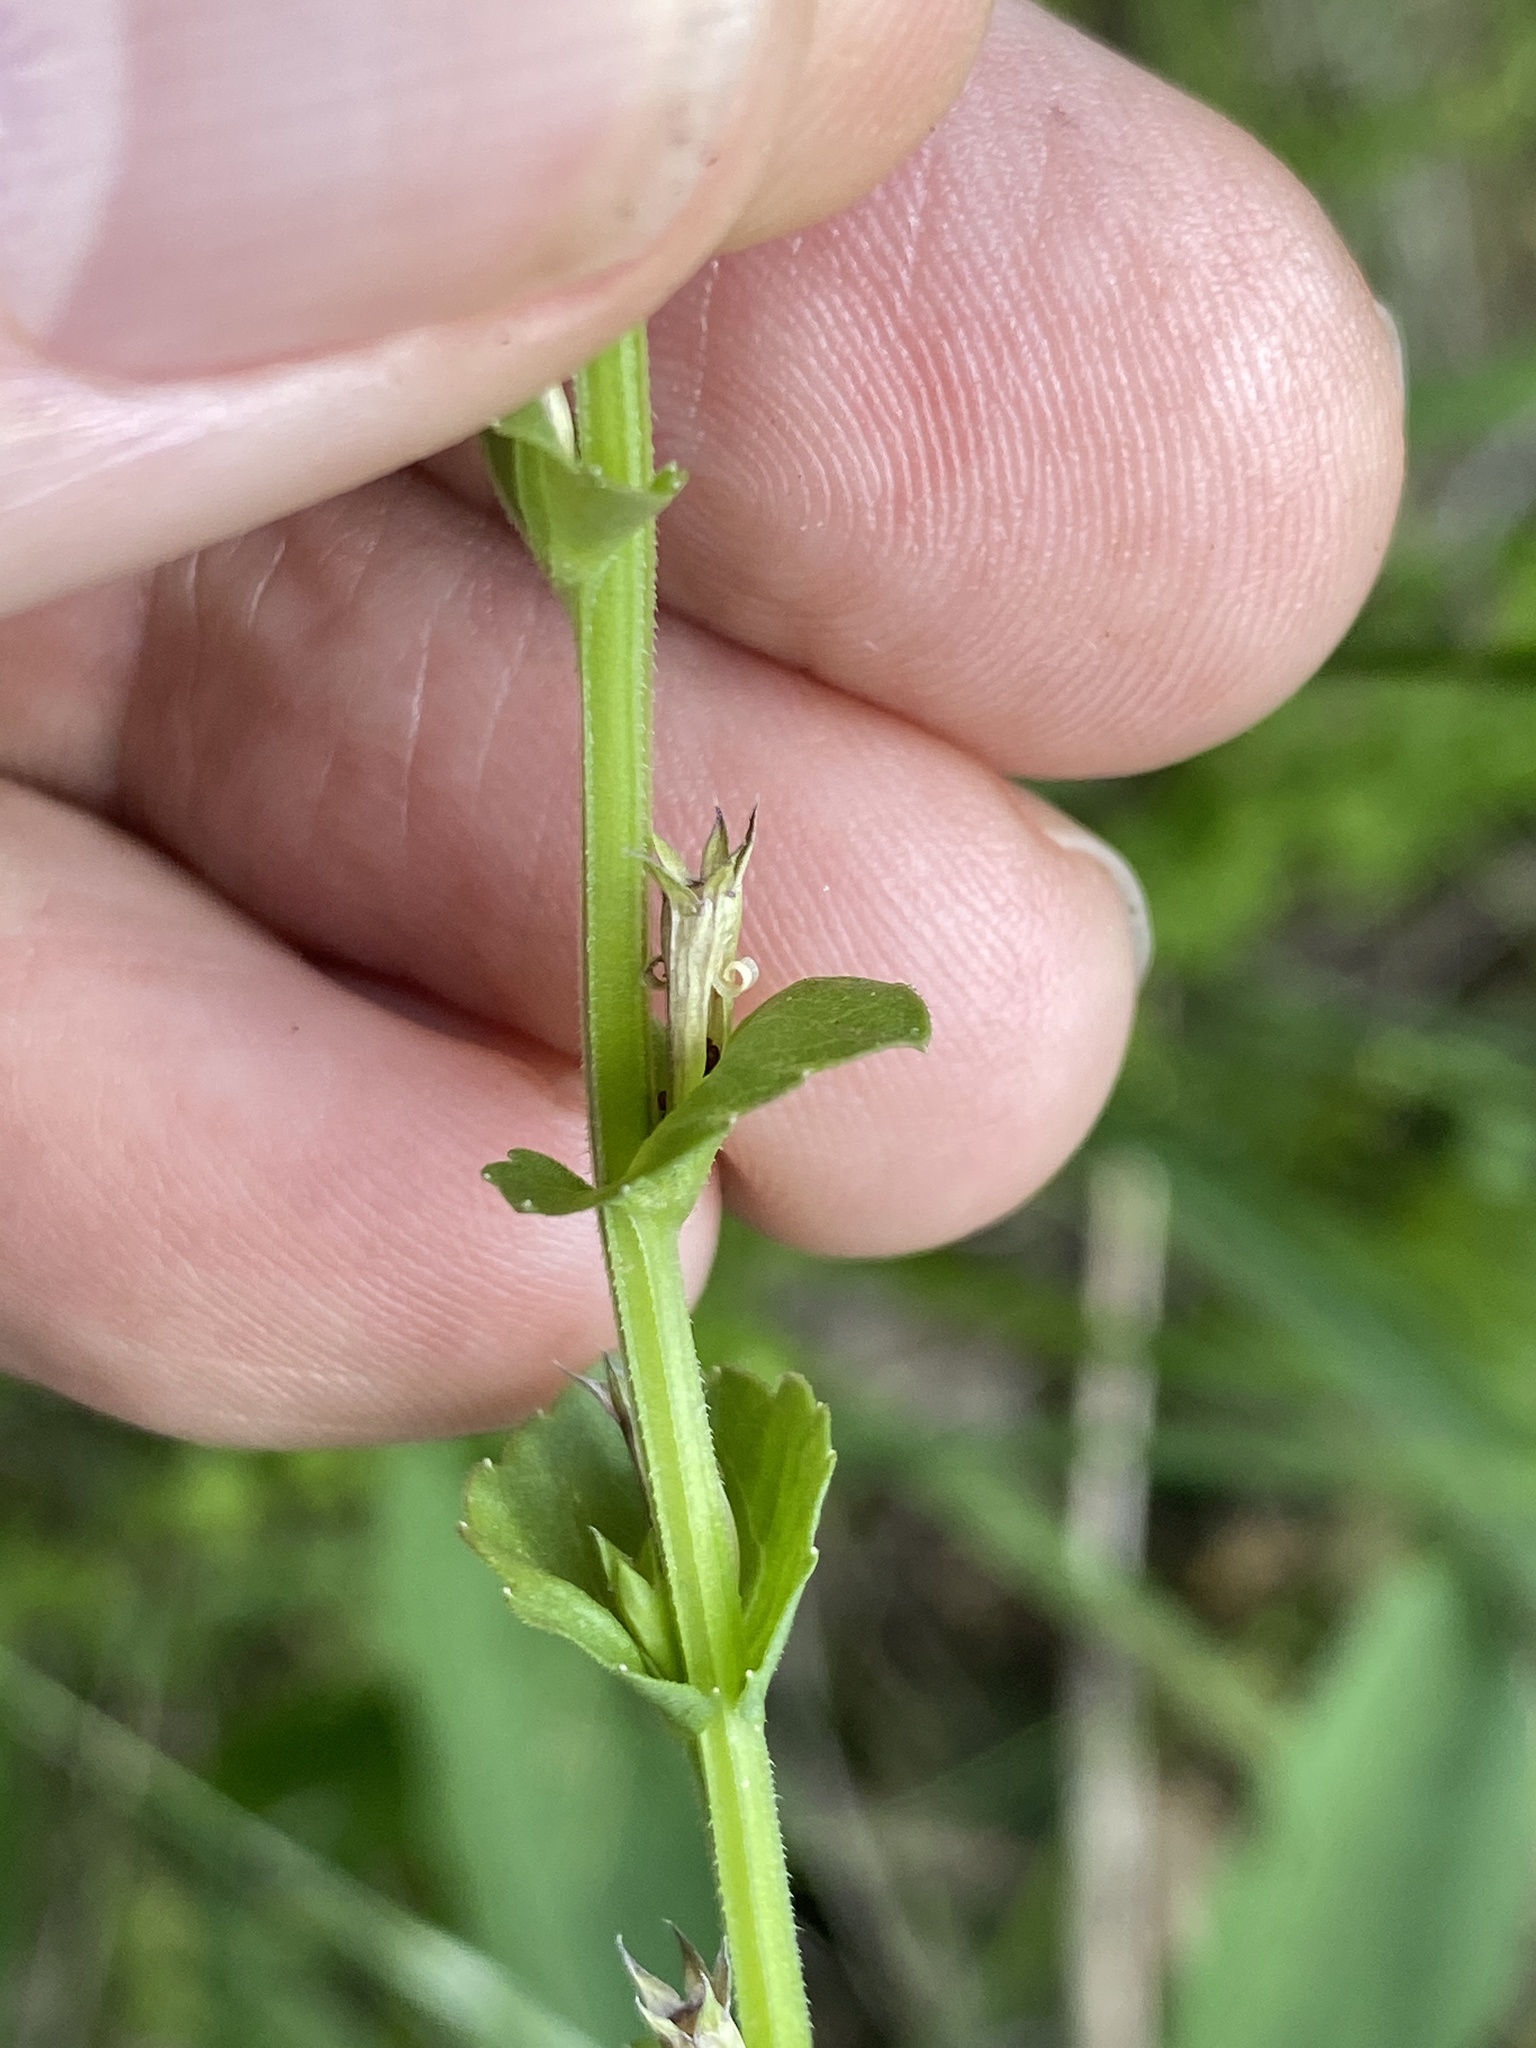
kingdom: Plantae
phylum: Tracheophyta
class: Magnoliopsida
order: Asterales
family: Campanulaceae
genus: Triodanis
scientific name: Triodanis perfoliata
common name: Clasping venus' looking-glass
